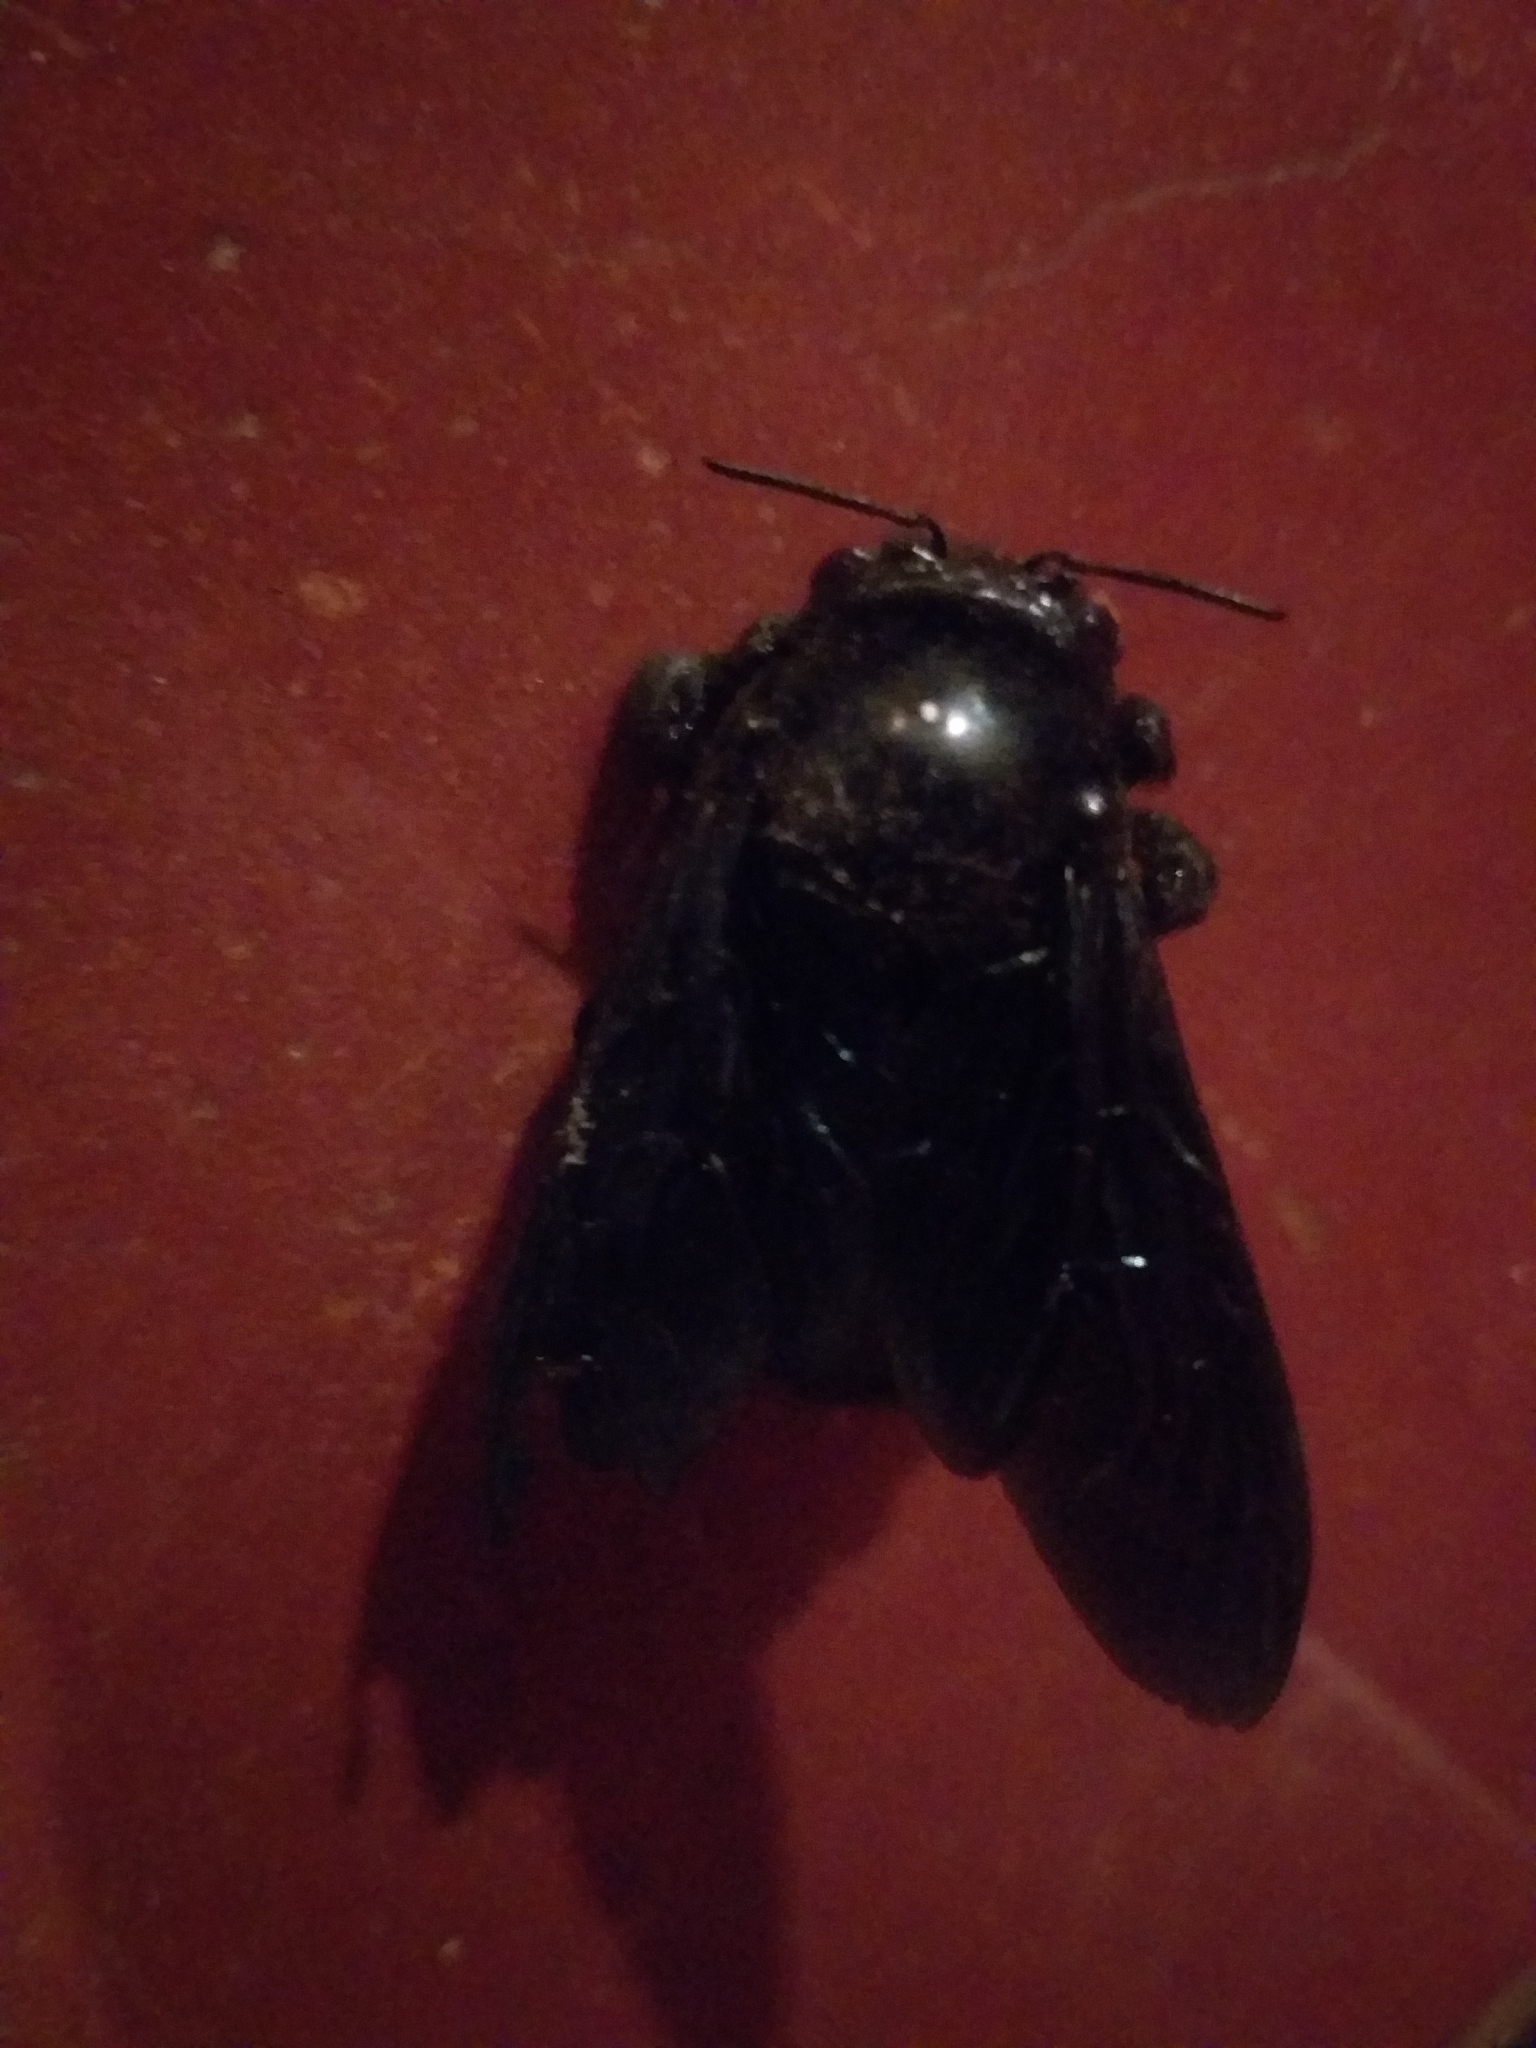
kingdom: Animalia
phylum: Arthropoda
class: Insecta
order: Hymenoptera
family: Apidae
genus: Xylocopa
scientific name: Xylocopa fimbriata
